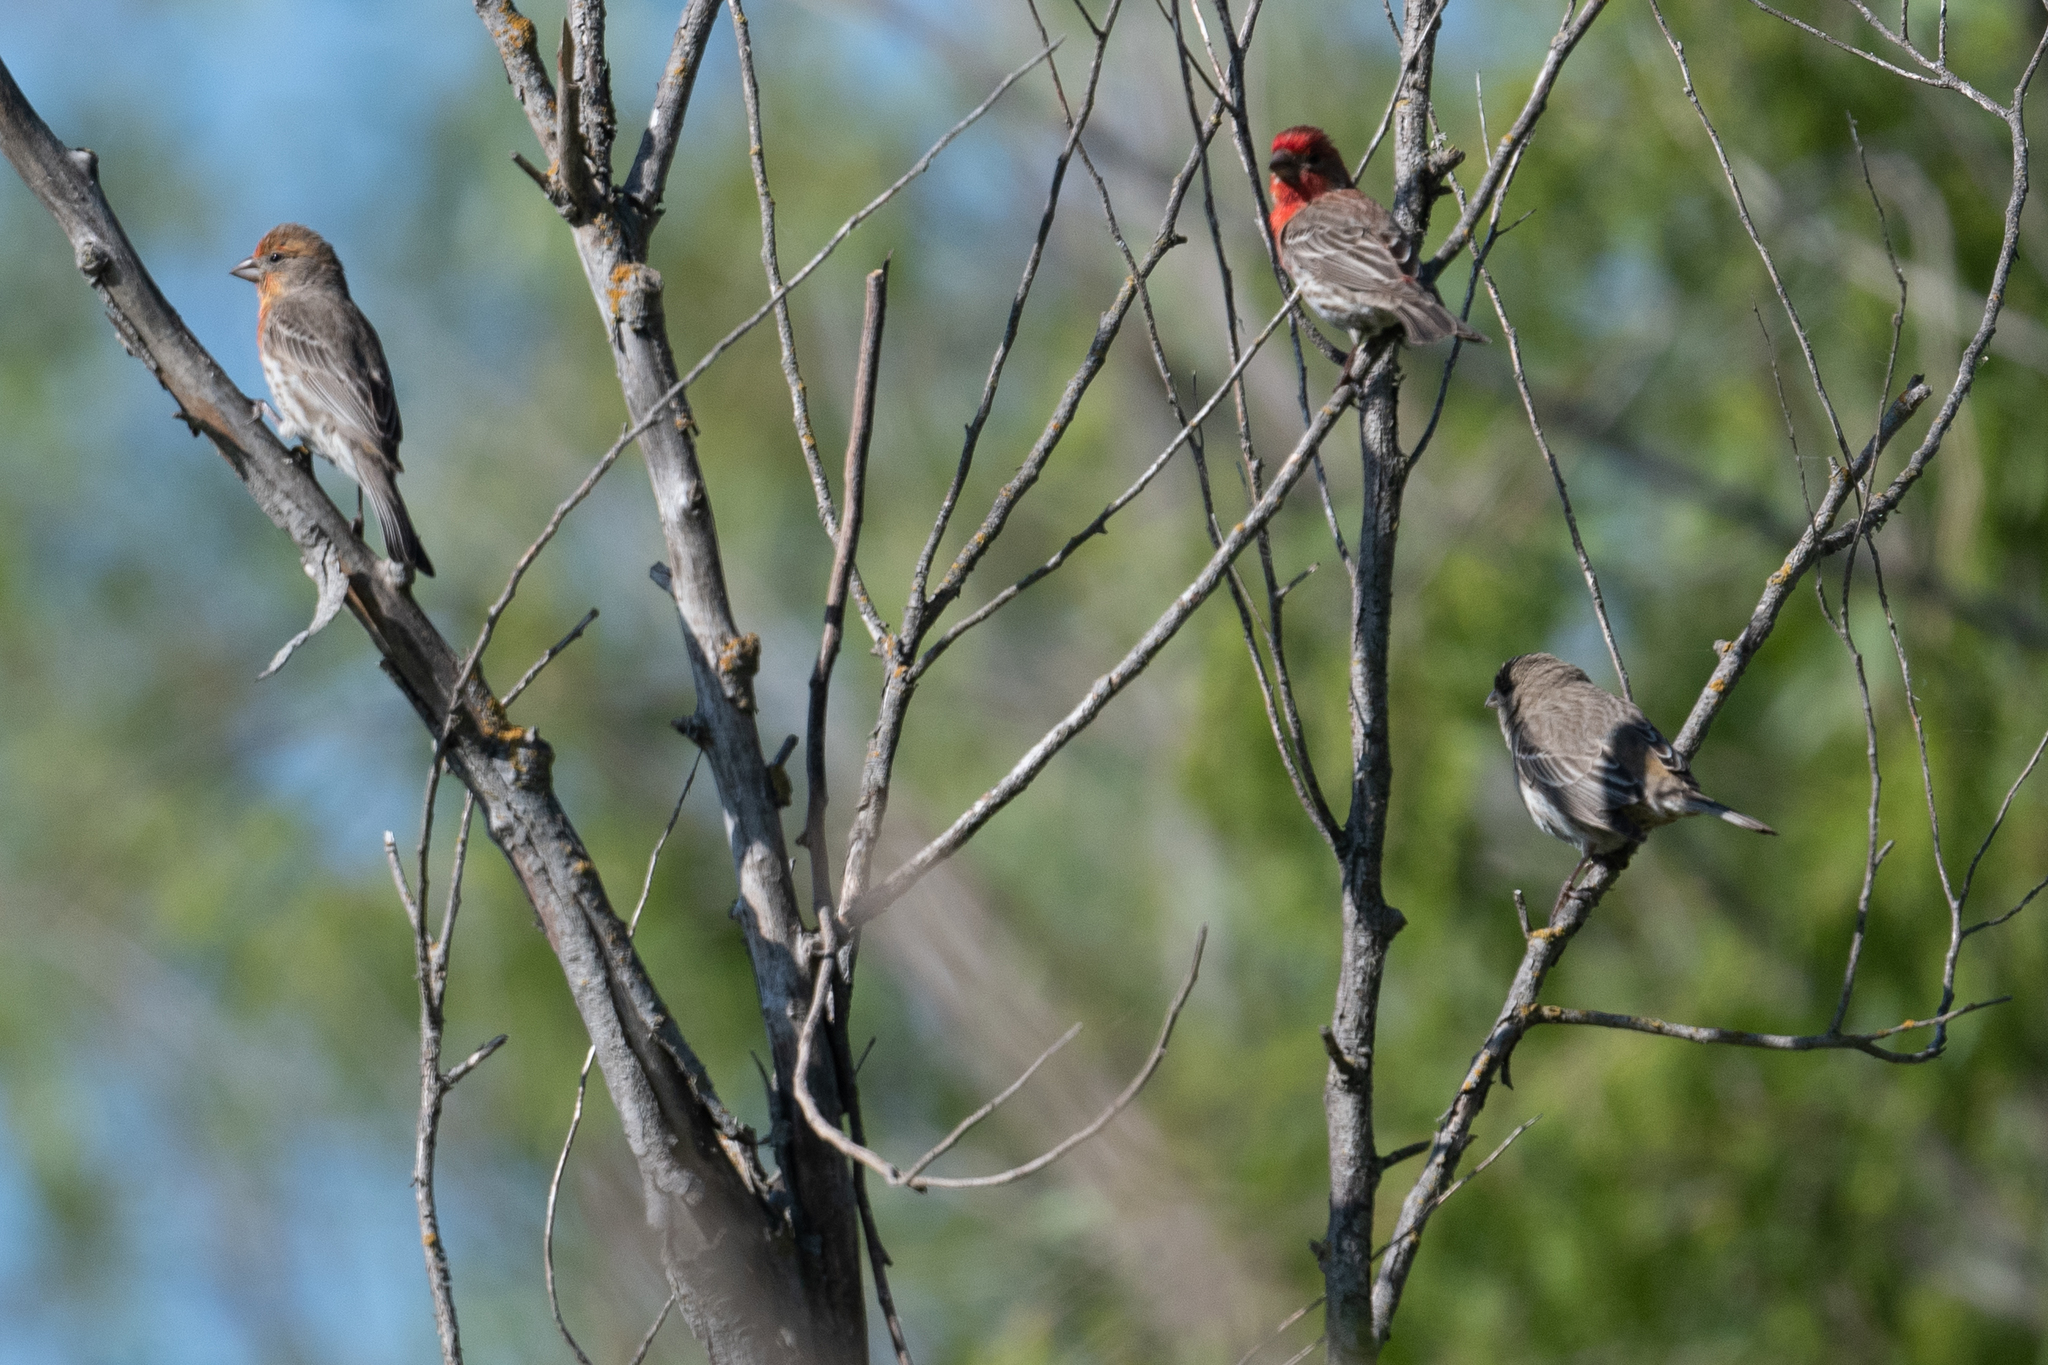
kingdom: Animalia
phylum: Chordata
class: Aves
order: Passeriformes
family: Fringillidae
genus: Haemorhous
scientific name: Haemorhous mexicanus
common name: House finch
